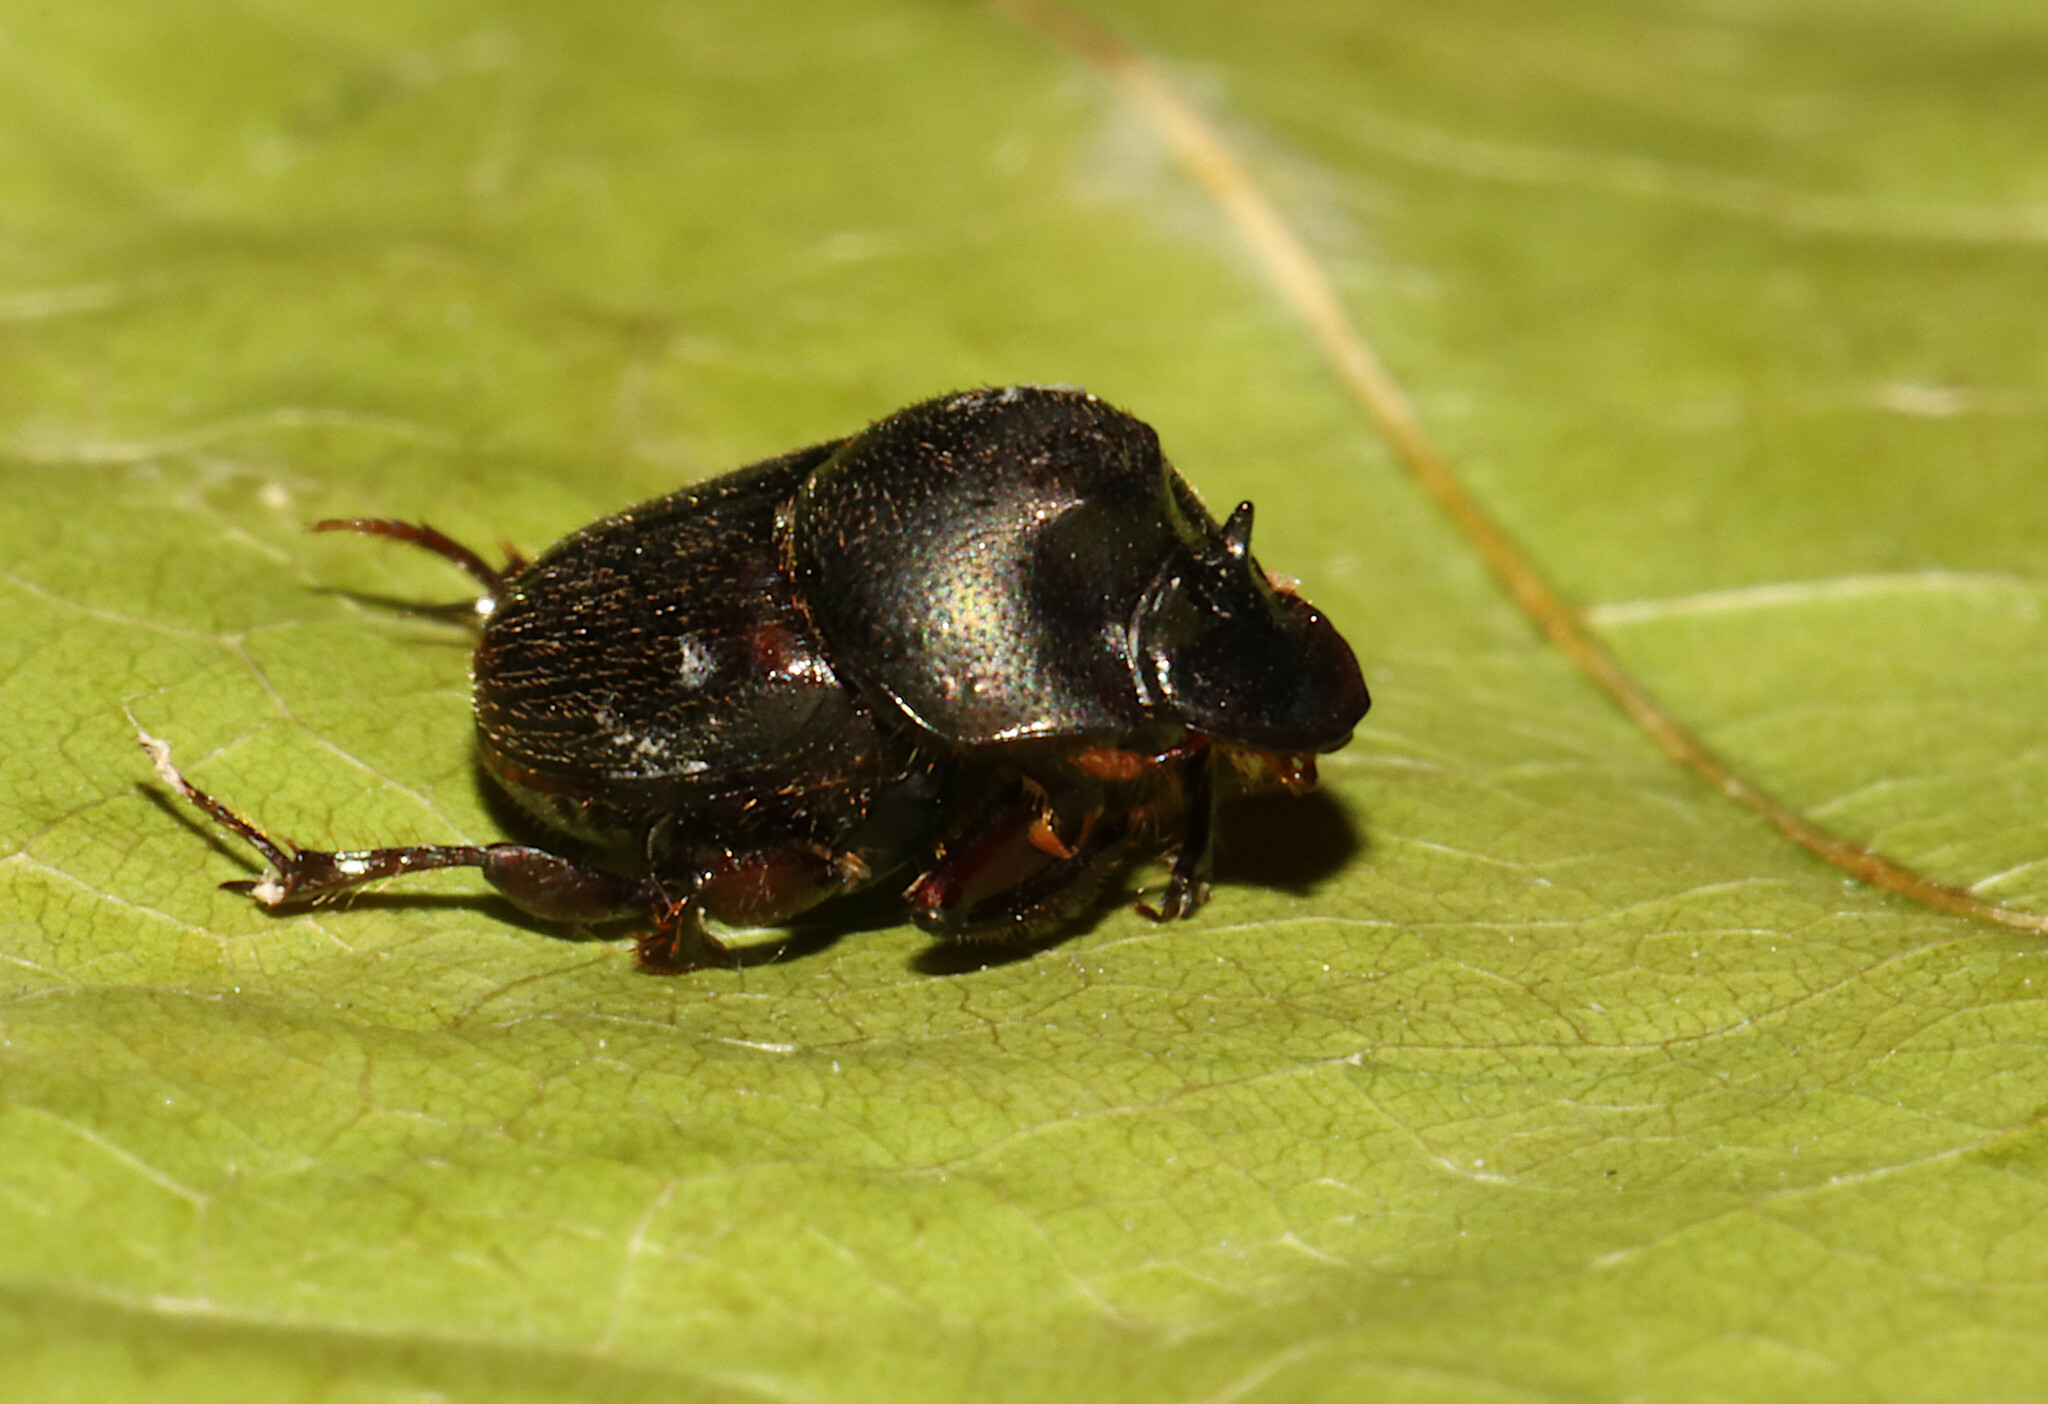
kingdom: Animalia
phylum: Arthropoda
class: Insecta
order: Coleoptera
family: Scarabaeidae
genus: Onthophagus
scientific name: Onthophagus striatulus
